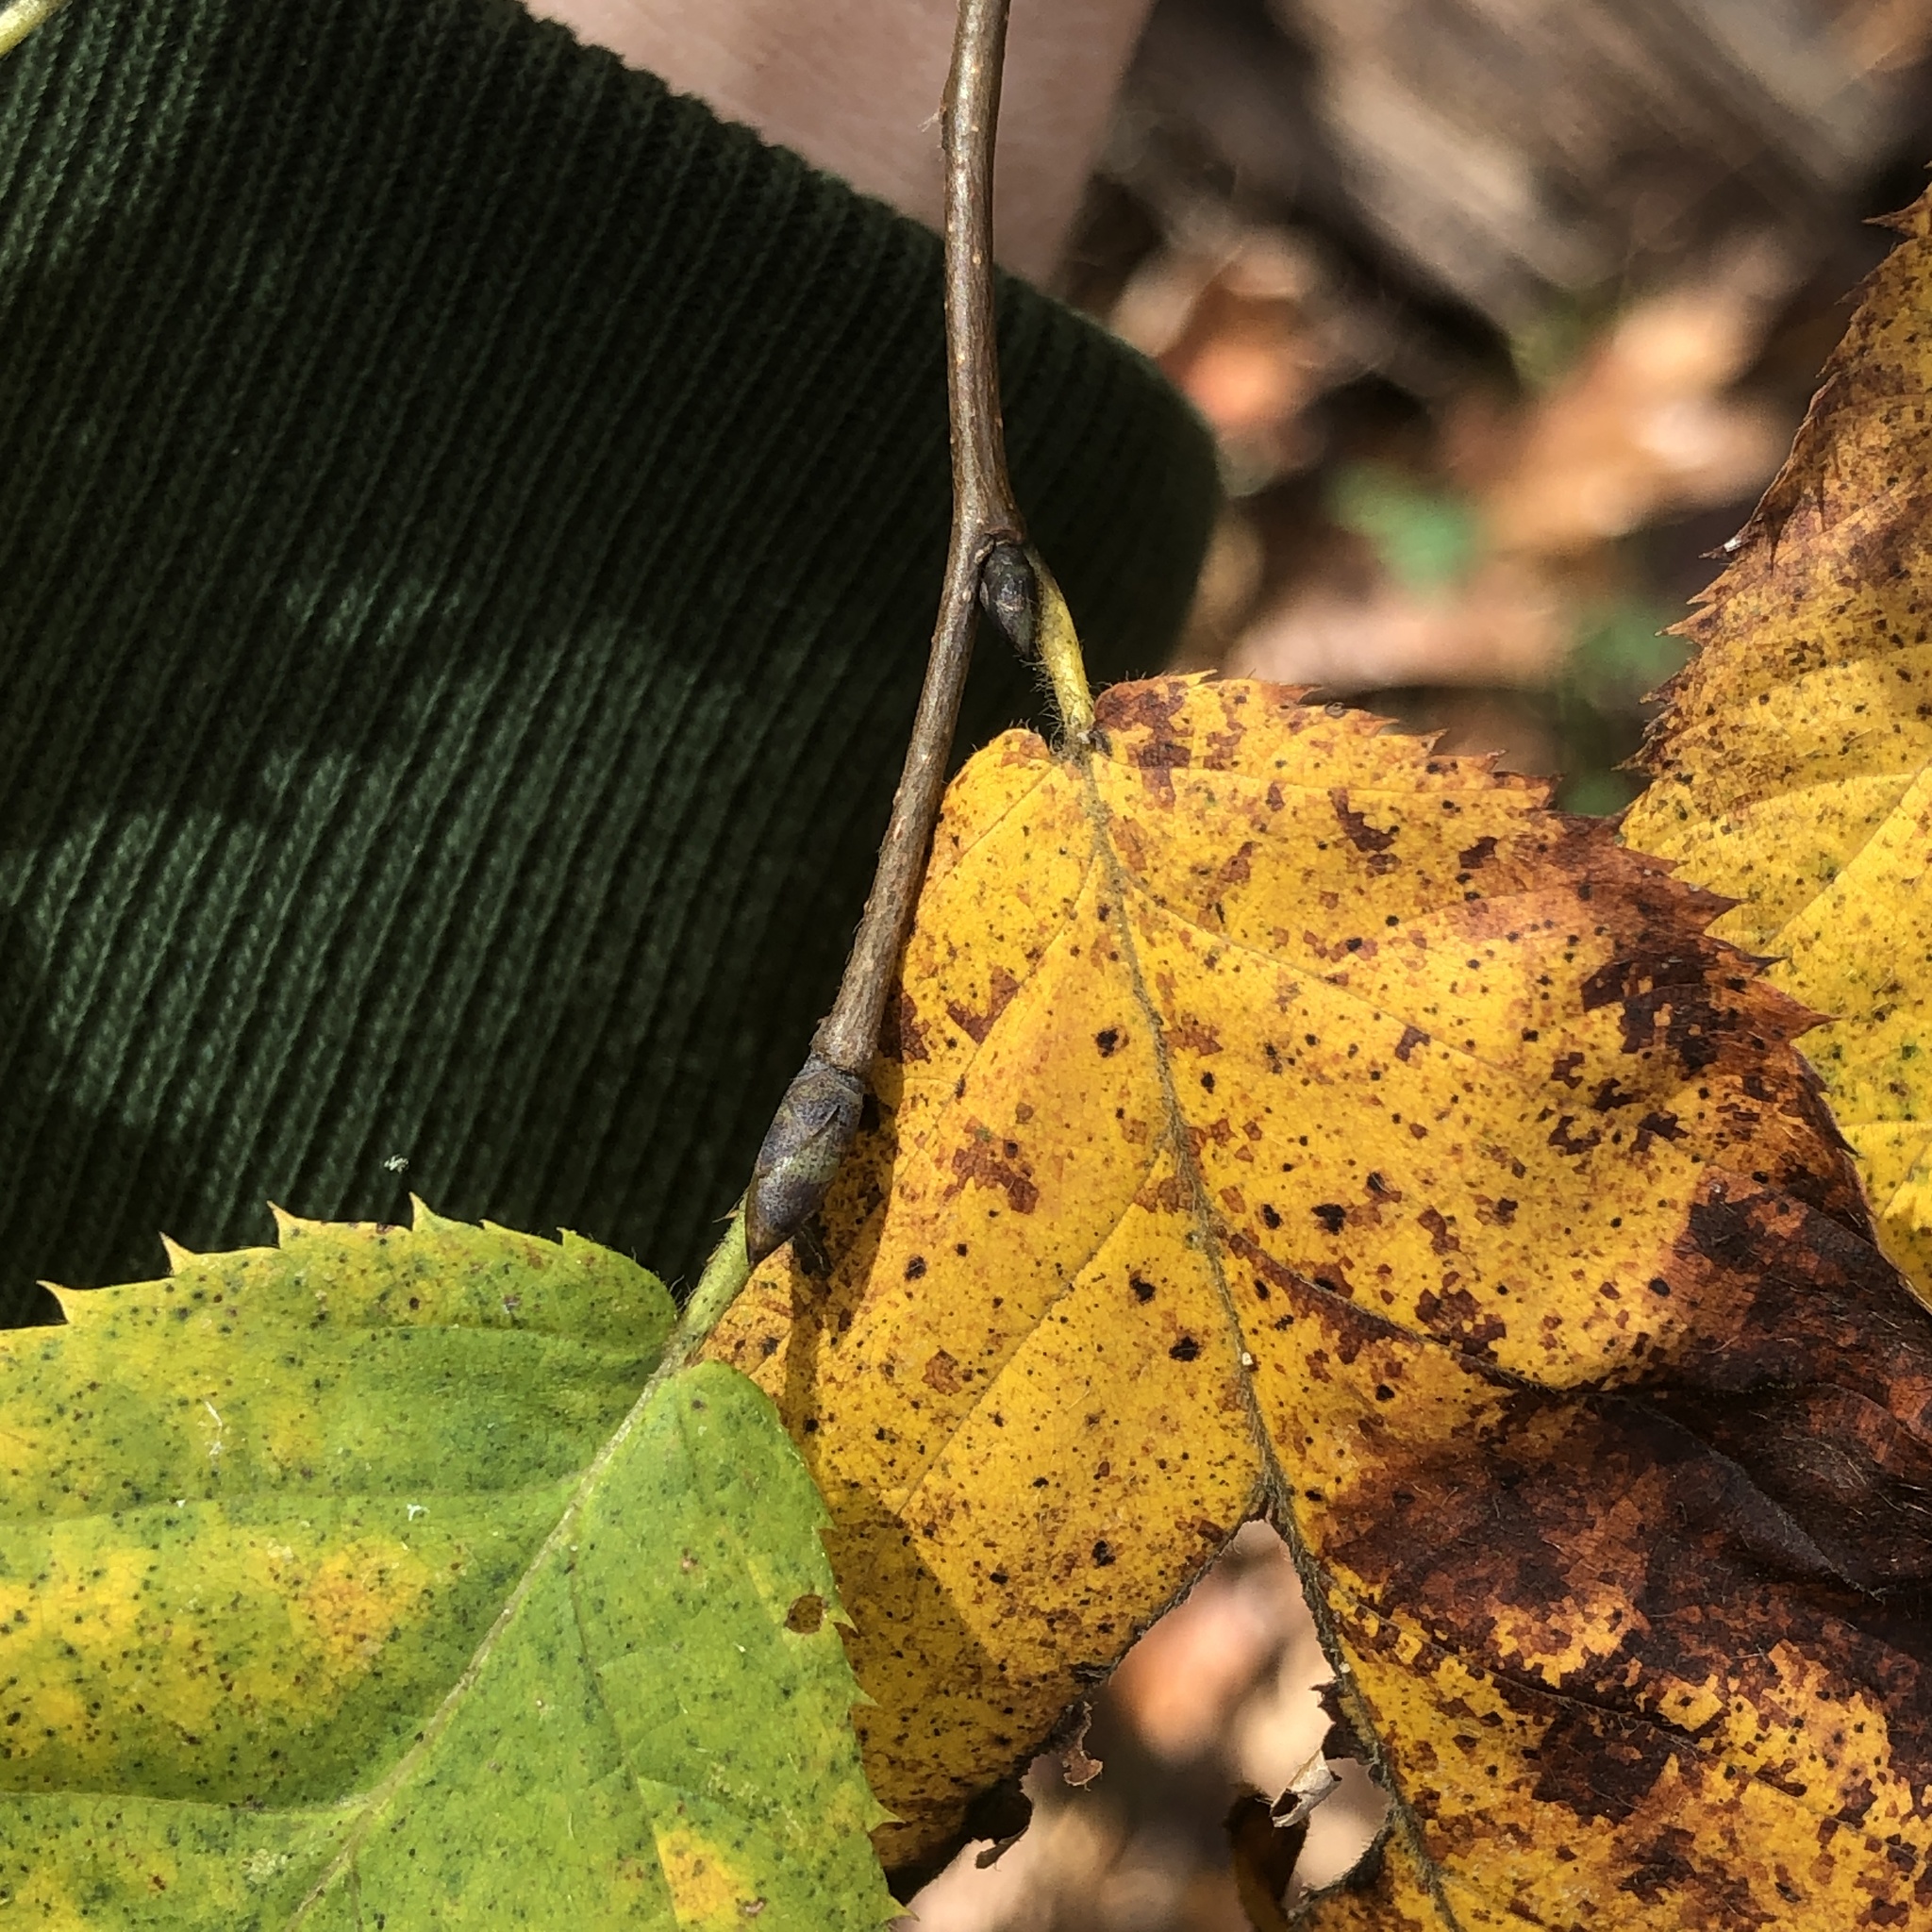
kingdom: Plantae
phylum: Tracheophyta
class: Magnoliopsida
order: Fagales
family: Betulaceae
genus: Ostrya
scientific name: Ostrya virginiana
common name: Ironwood
